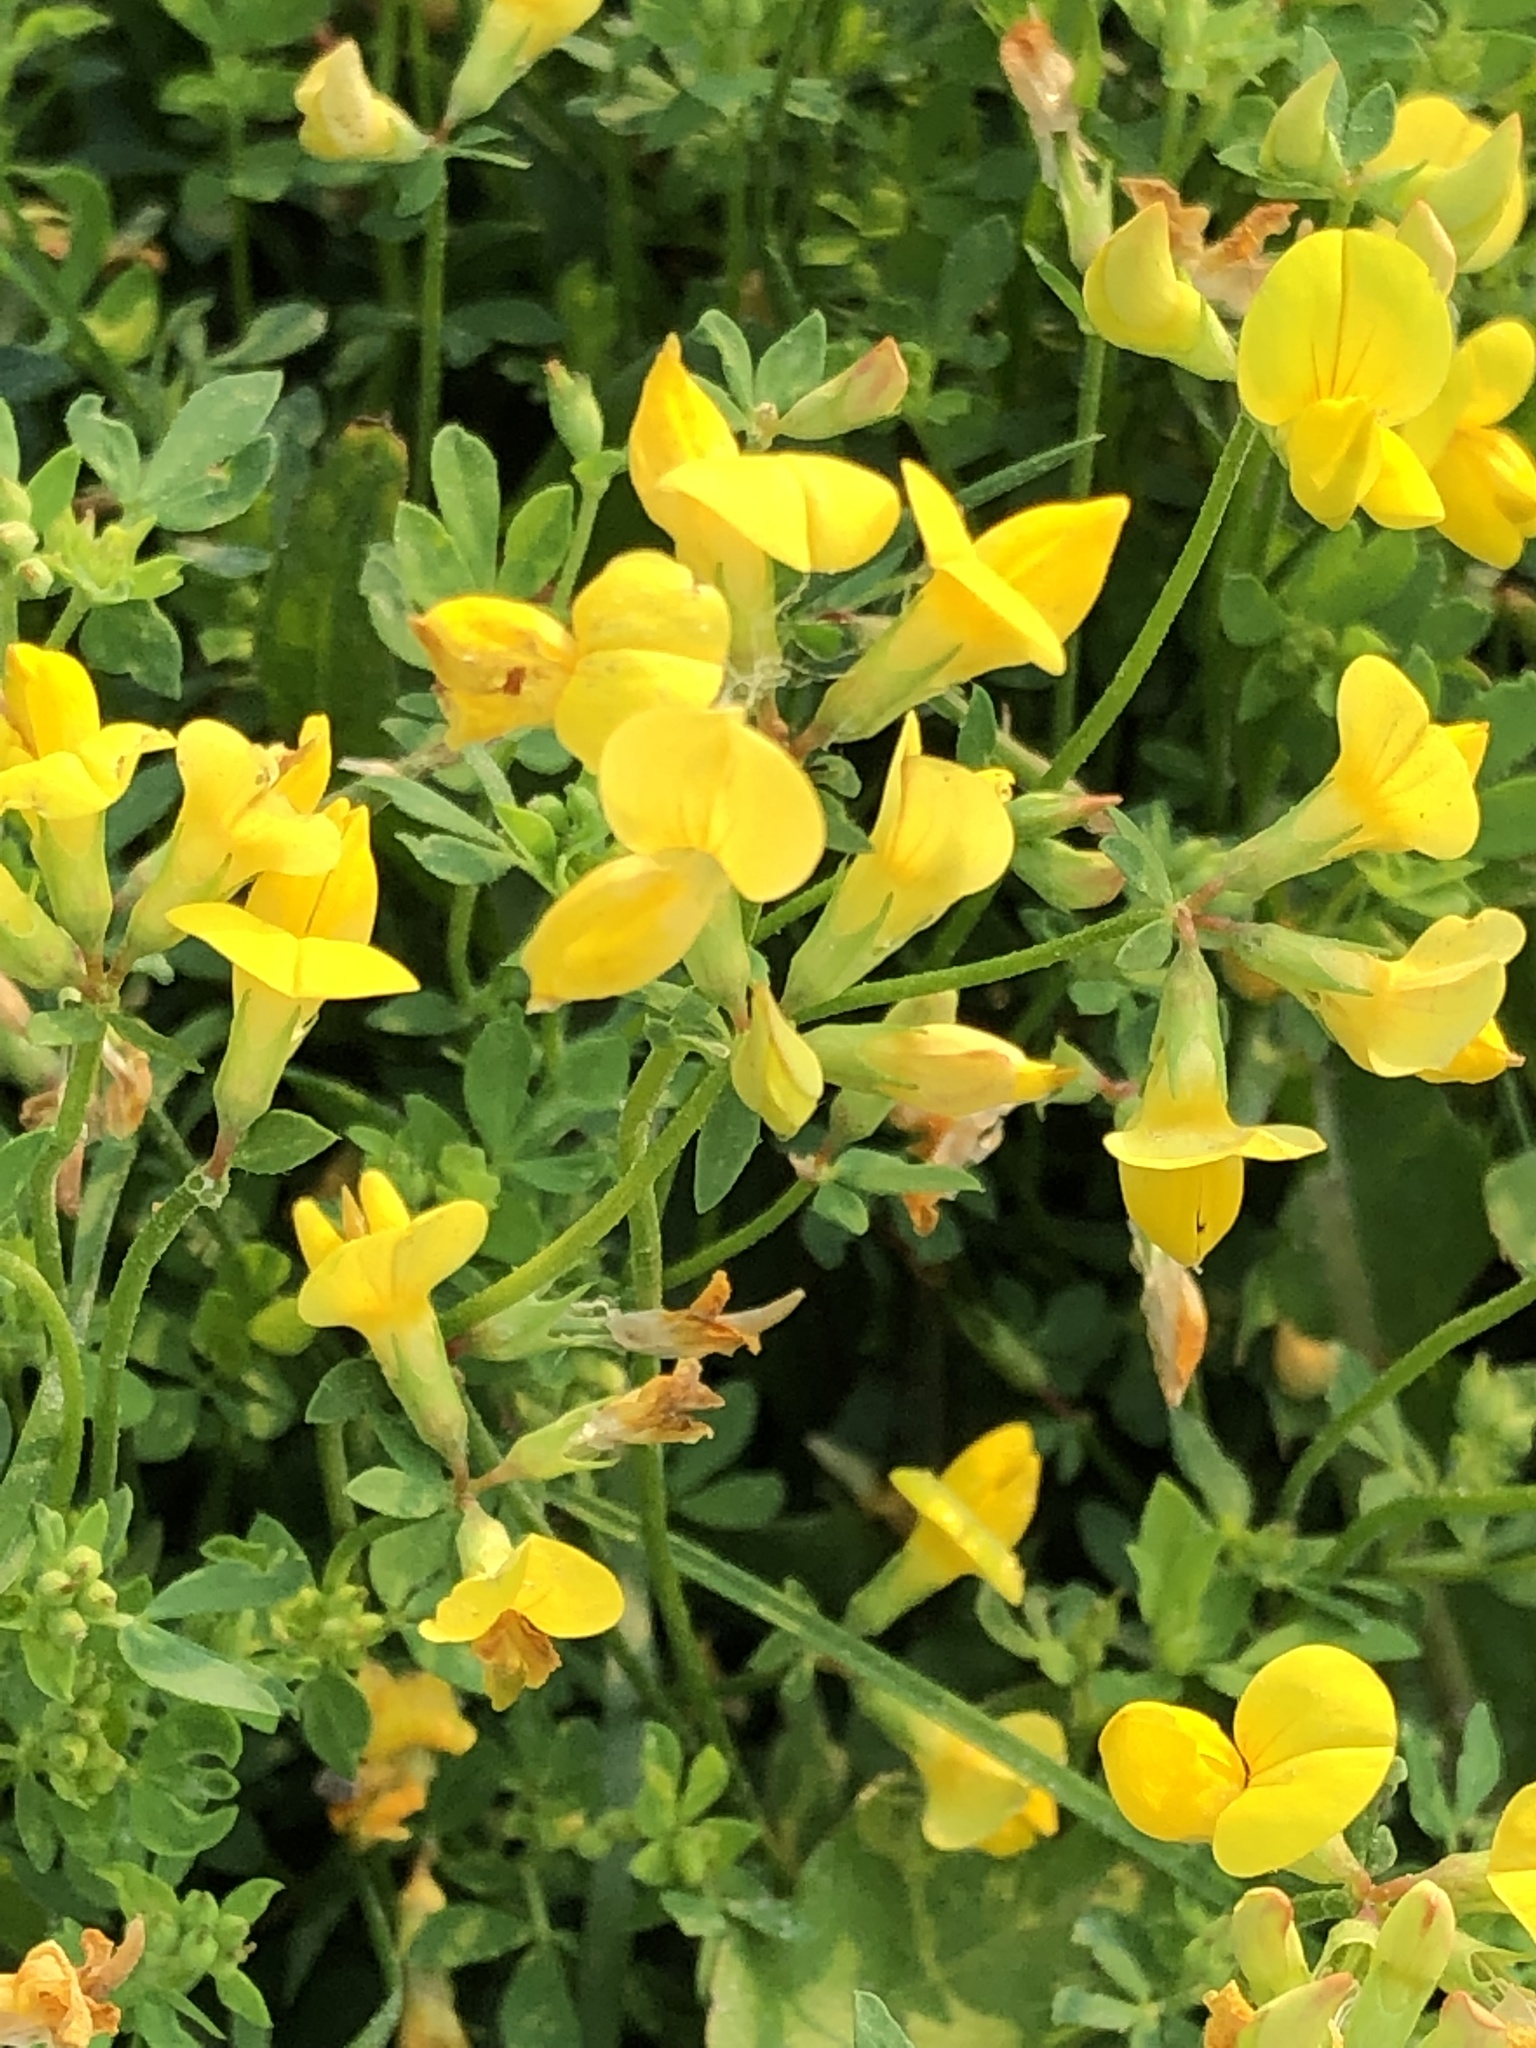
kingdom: Plantae
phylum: Tracheophyta
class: Magnoliopsida
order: Fabales
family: Fabaceae
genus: Lotus
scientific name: Lotus corniculatus
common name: Common bird's-foot-trefoil
